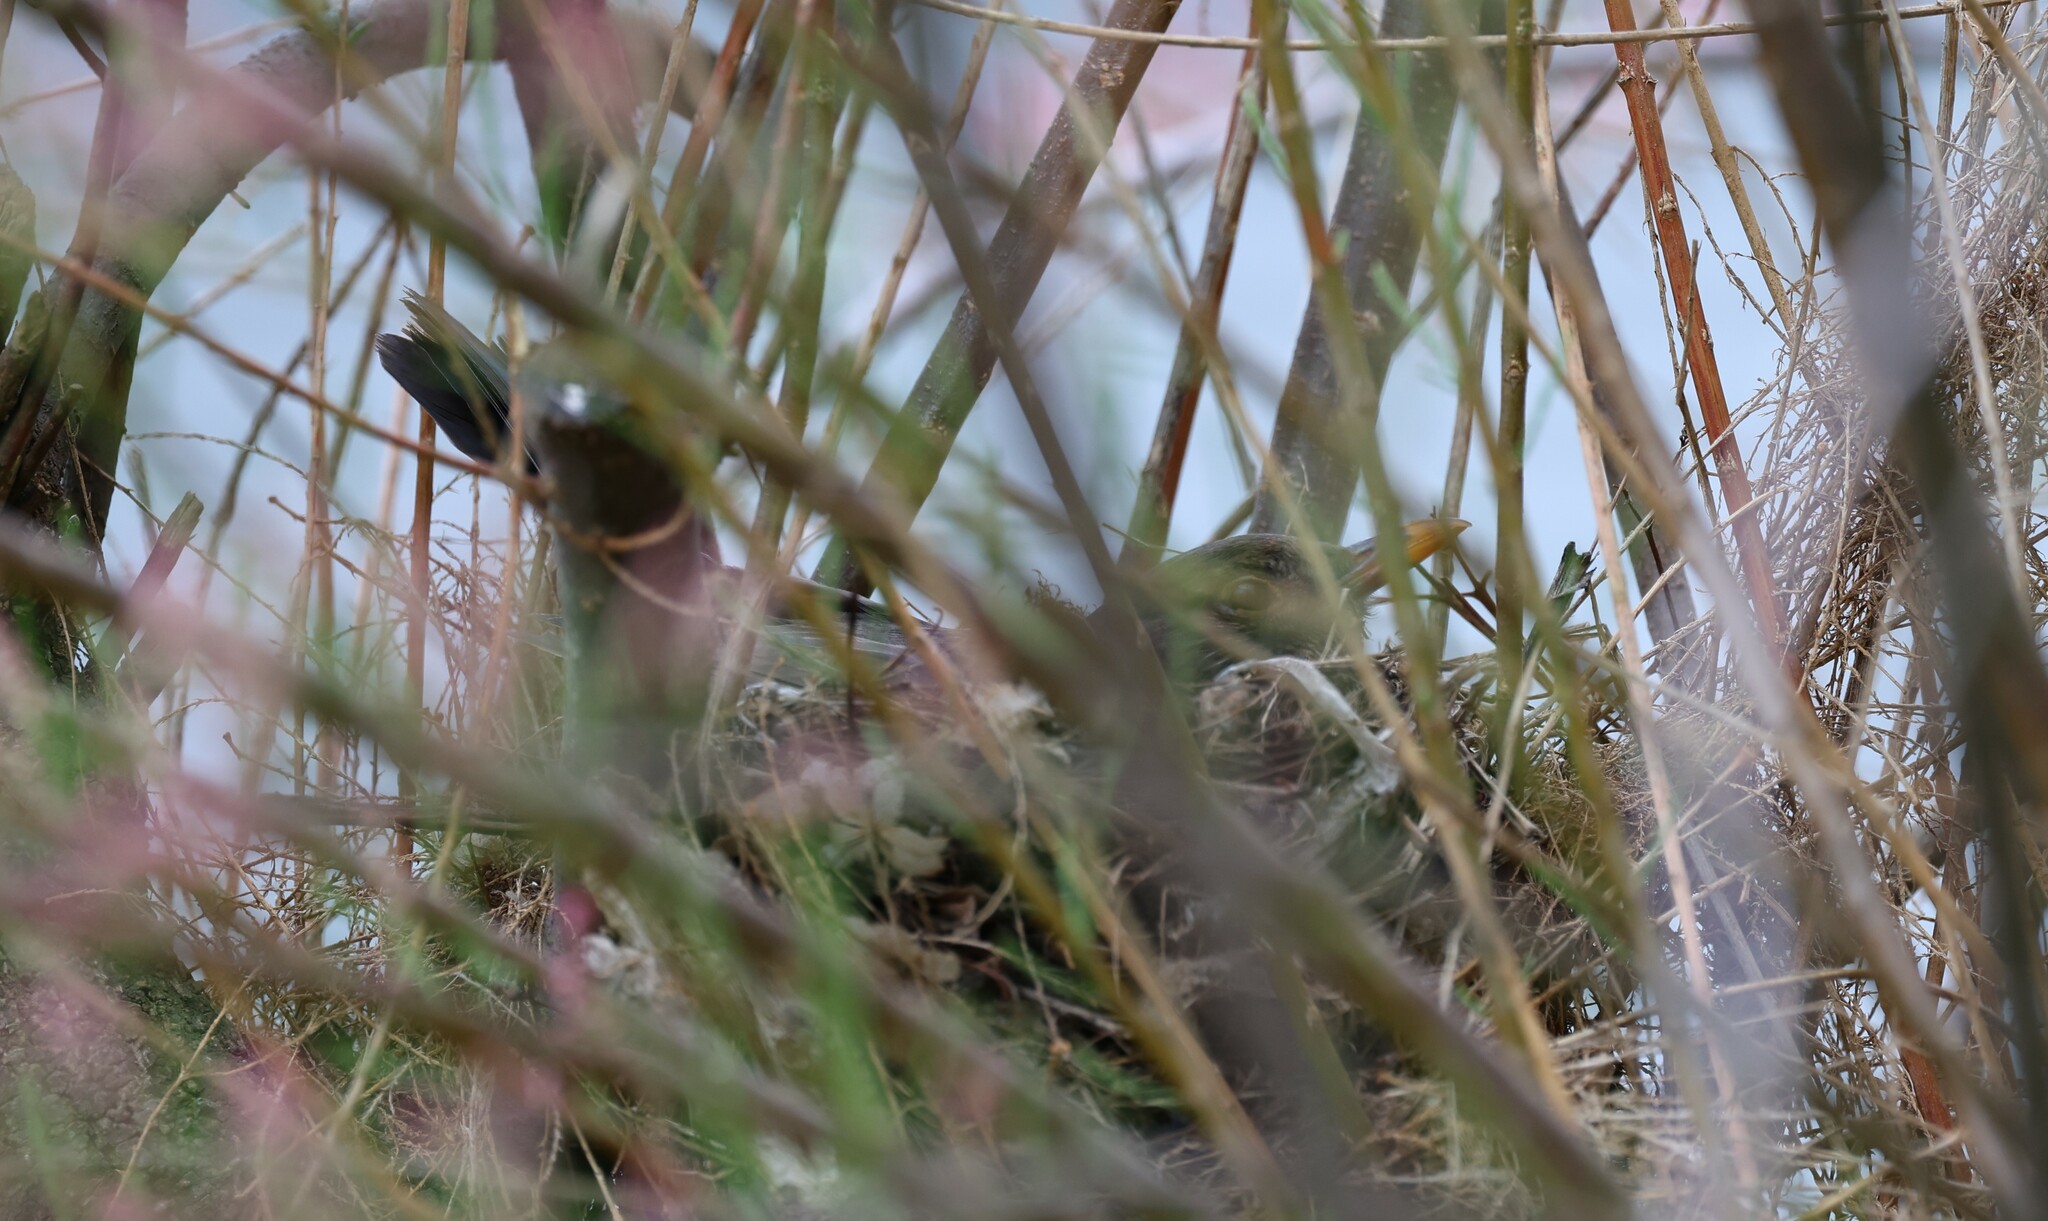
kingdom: Animalia
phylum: Chordata
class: Aves
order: Passeriformes
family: Turdidae
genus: Turdus
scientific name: Turdus merula
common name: Common blackbird
